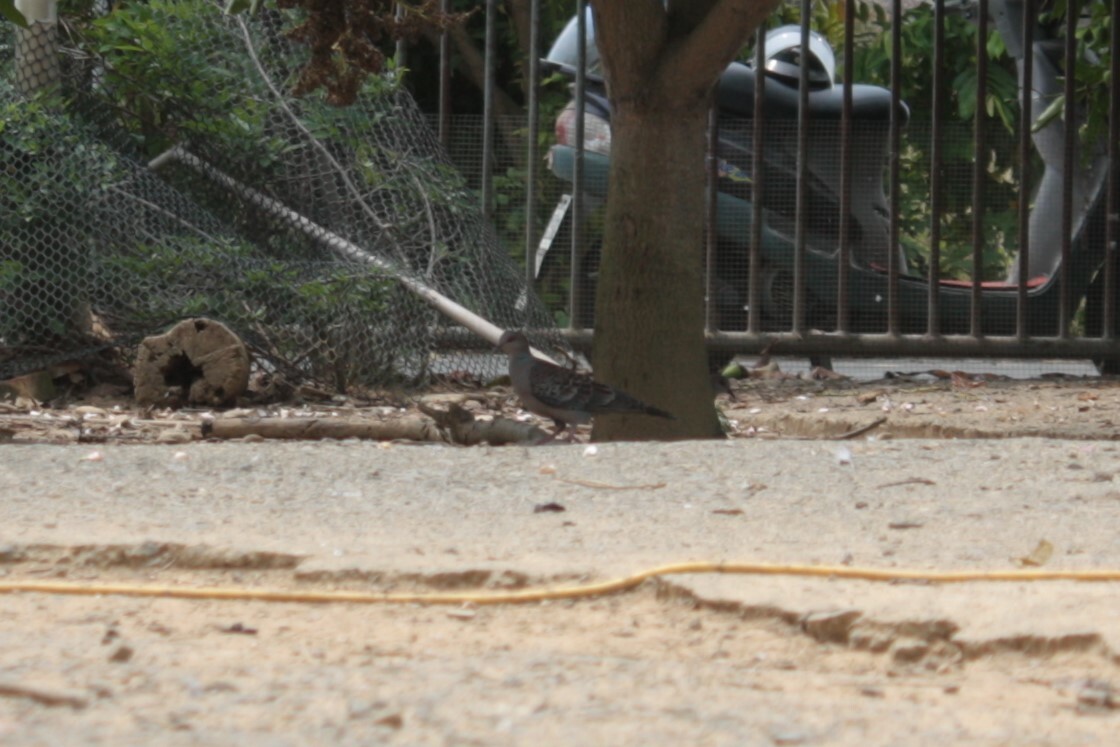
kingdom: Animalia
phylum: Chordata
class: Aves
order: Columbiformes
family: Columbidae
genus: Streptopelia
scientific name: Streptopelia orientalis
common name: Oriental turtle dove
